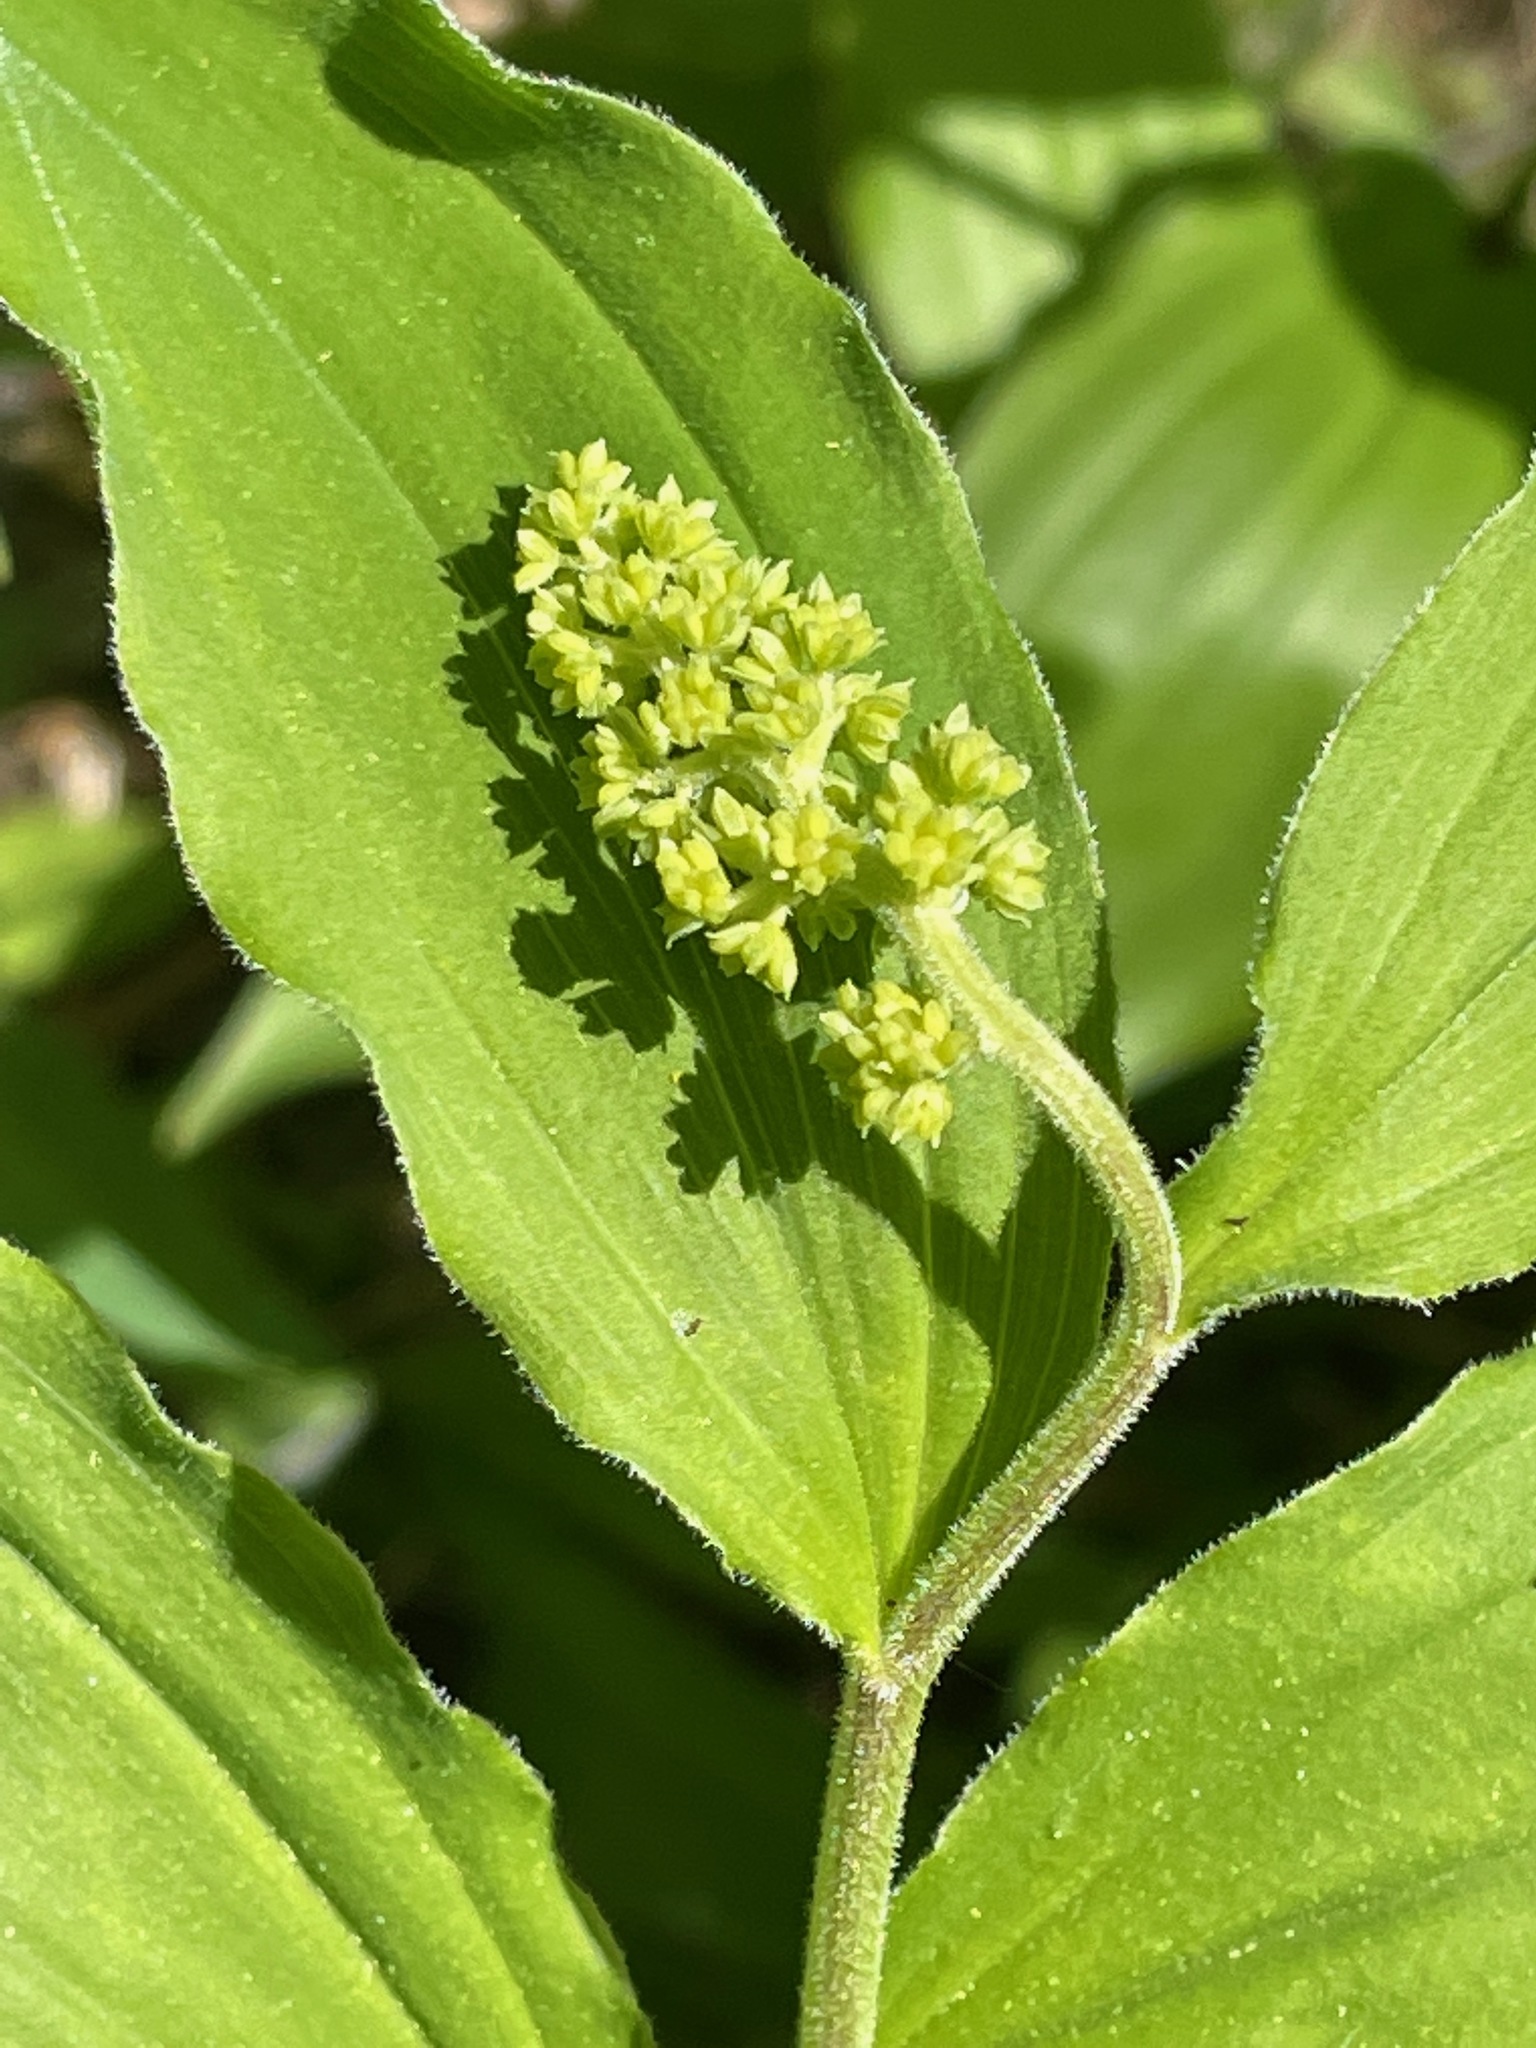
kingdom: Plantae
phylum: Tracheophyta
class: Liliopsida
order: Asparagales
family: Asparagaceae
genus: Maianthemum
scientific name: Maianthemum racemosum
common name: False spikenard
